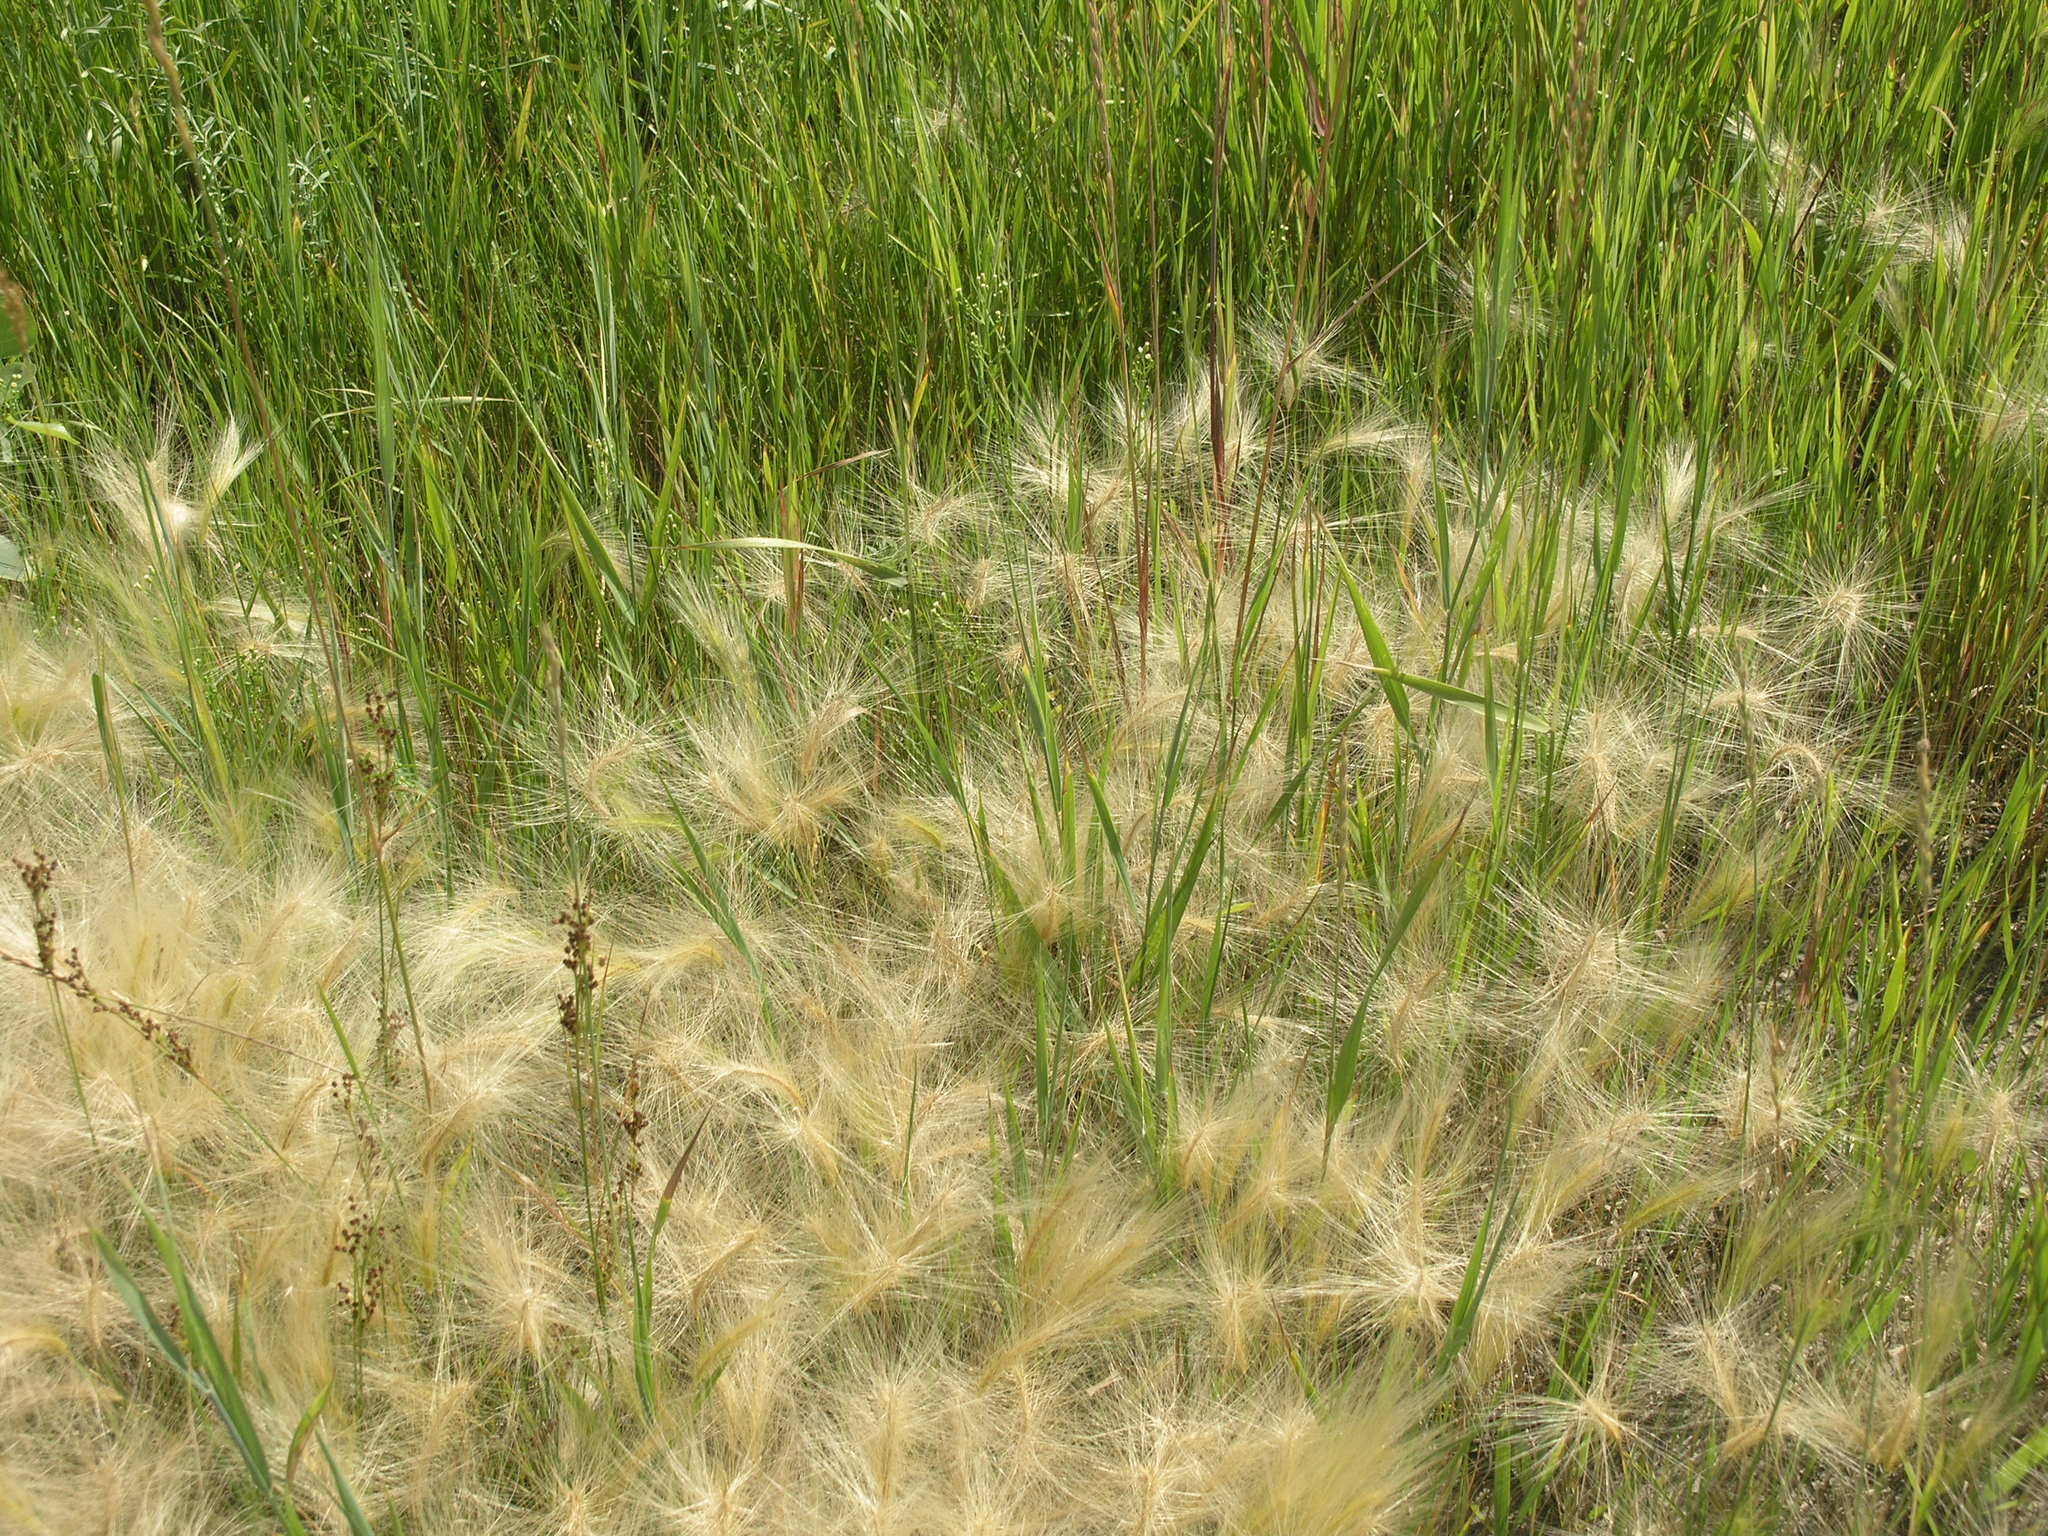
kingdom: Plantae
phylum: Tracheophyta
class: Liliopsida
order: Poales
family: Poaceae
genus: Hordeum
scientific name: Hordeum jubatum
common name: Foxtail barley
